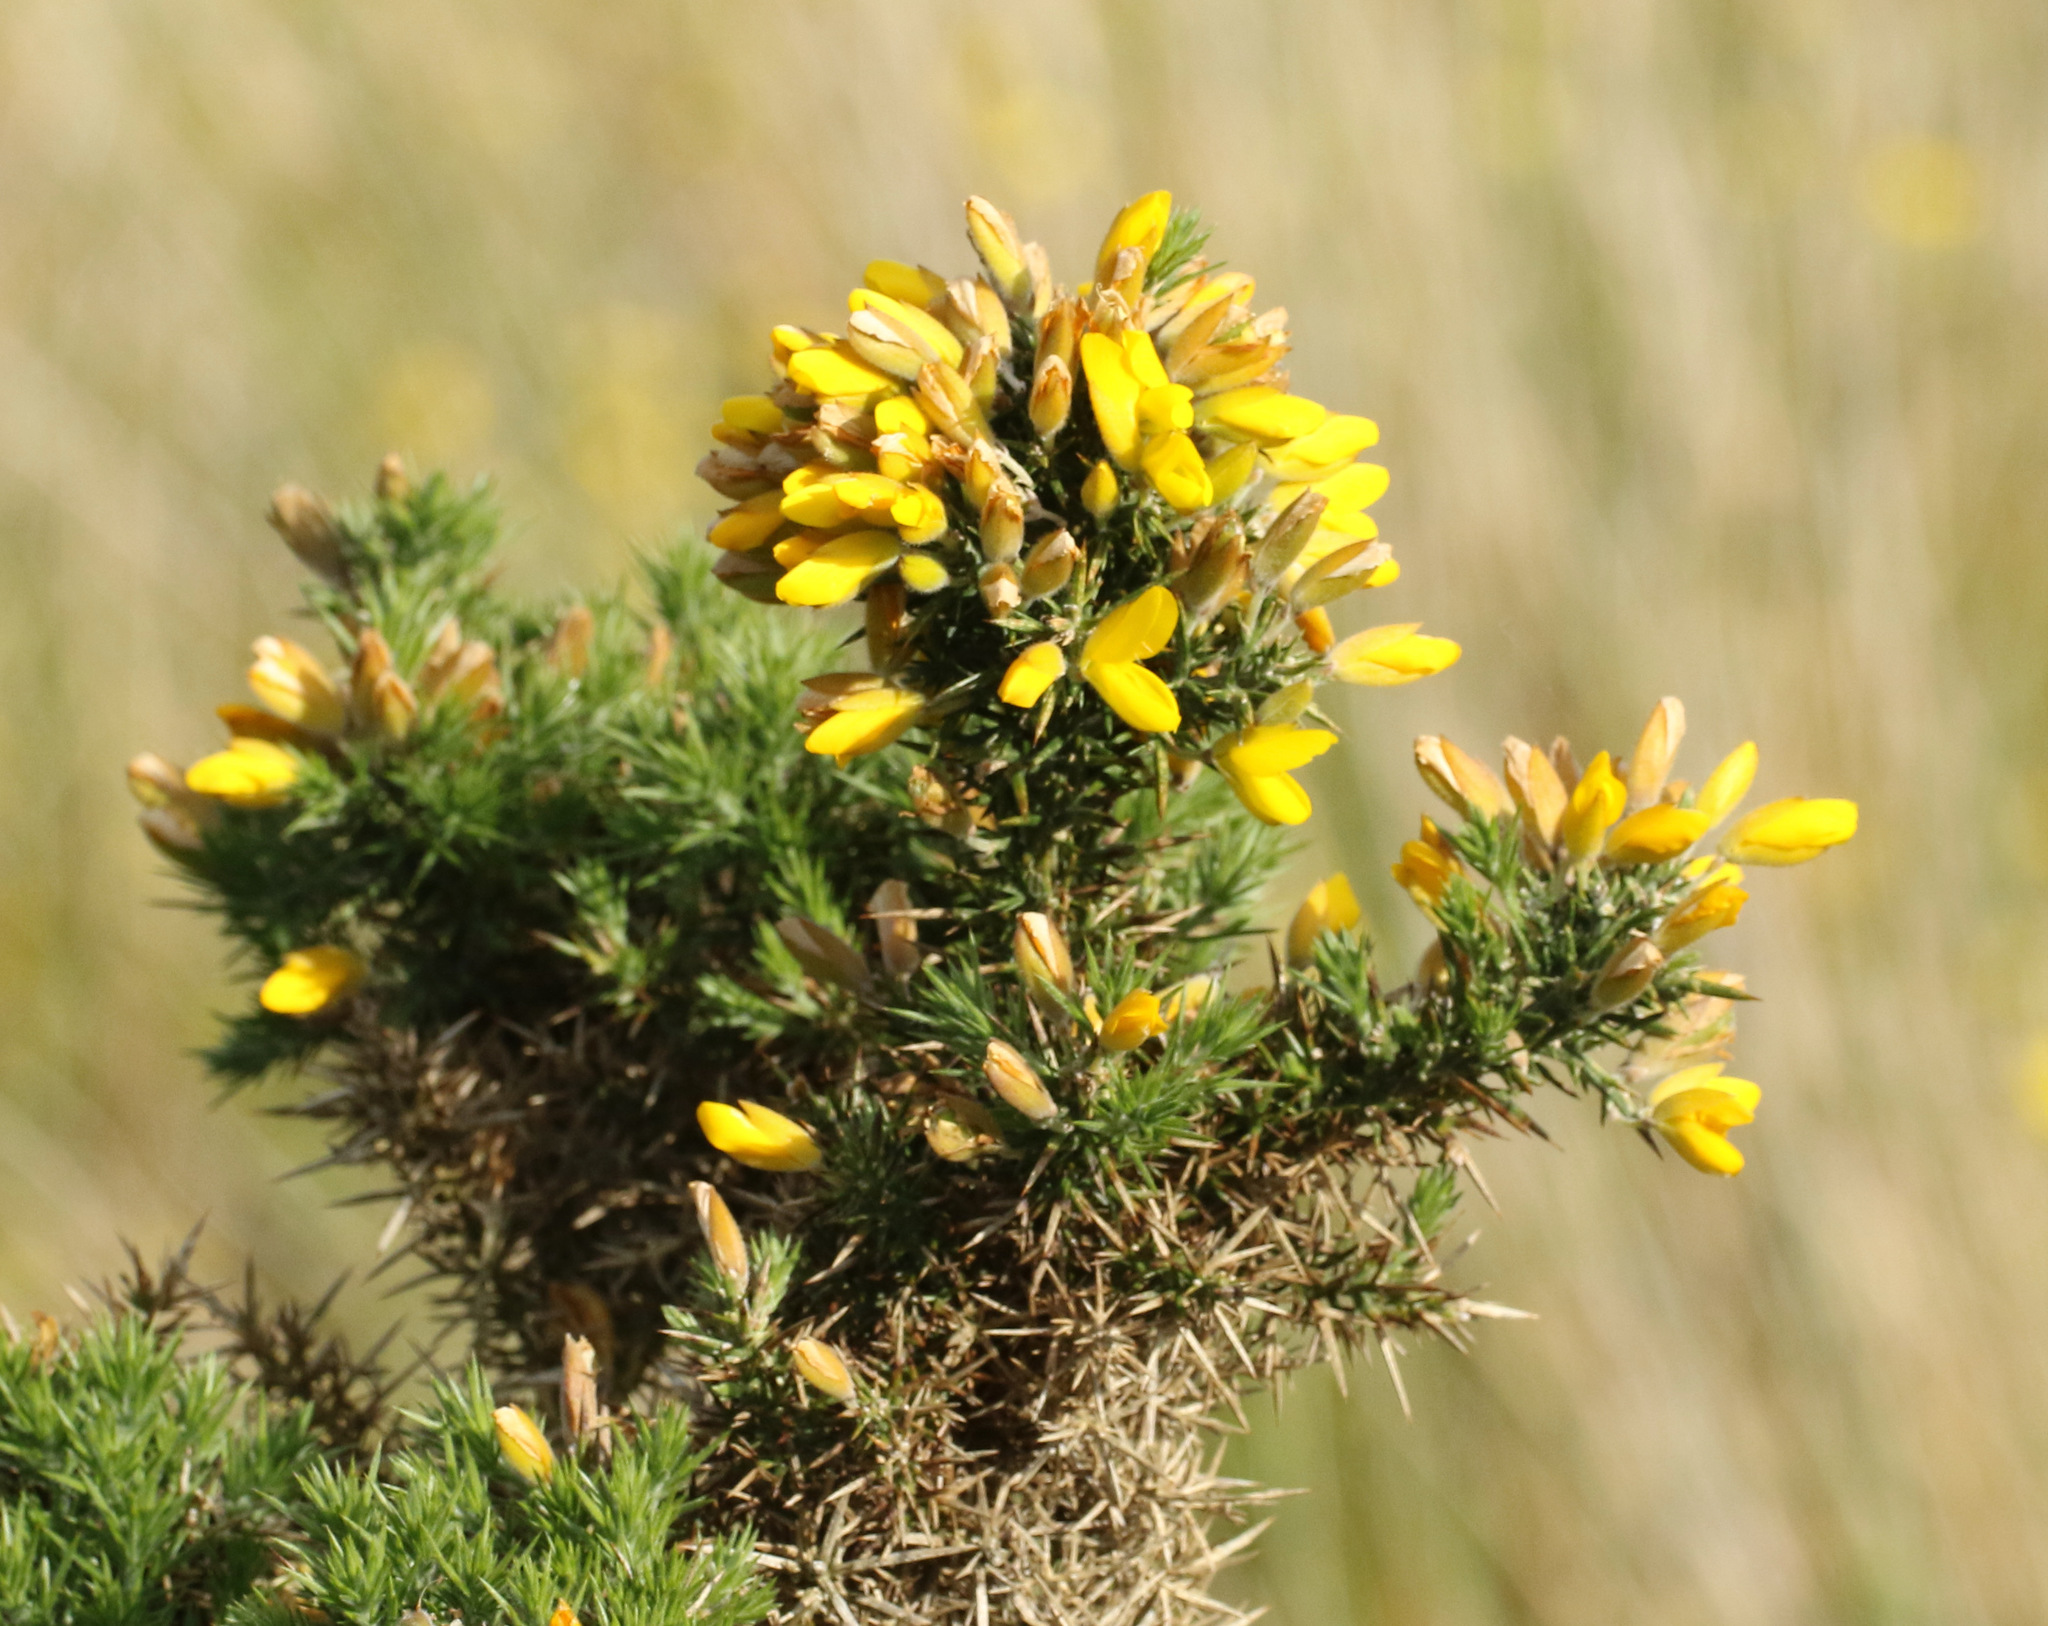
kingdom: Plantae
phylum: Tracheophyta
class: Magnoliopsida
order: Fabales
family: Fabaceae
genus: Ulex
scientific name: Ulex europaeus
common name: Common gorse
